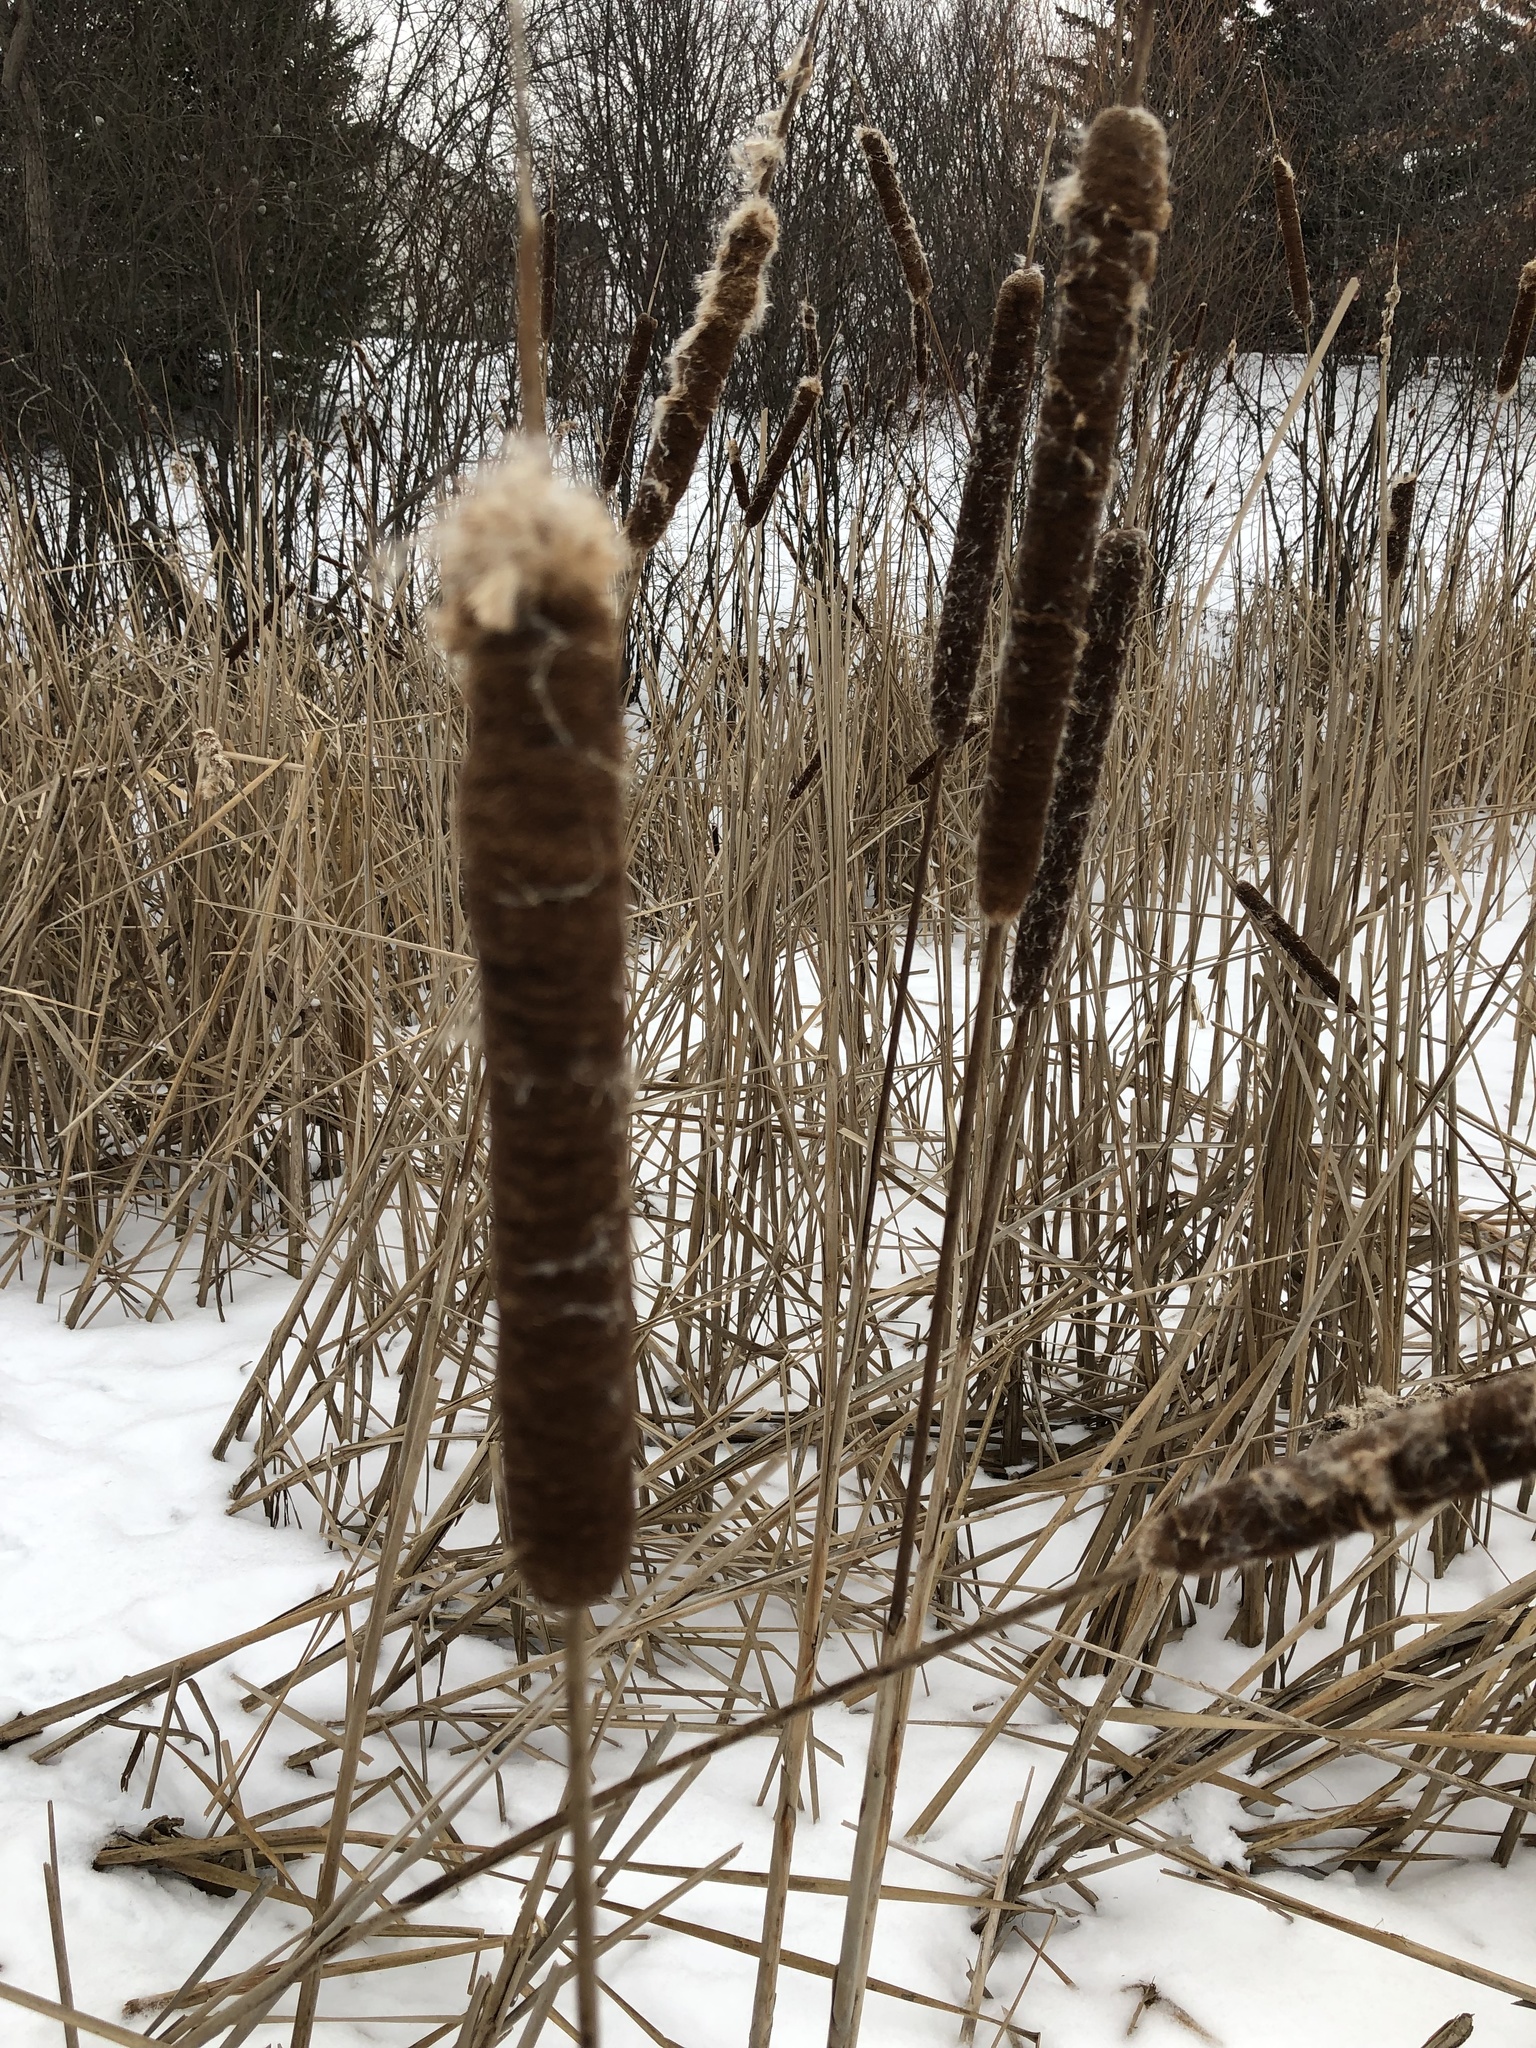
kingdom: Plantae
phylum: Tracheophyta
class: Liliopsida
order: Poales
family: Typhaceae
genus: Typha
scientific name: Typha latifolia
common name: Broadleaf cattail
